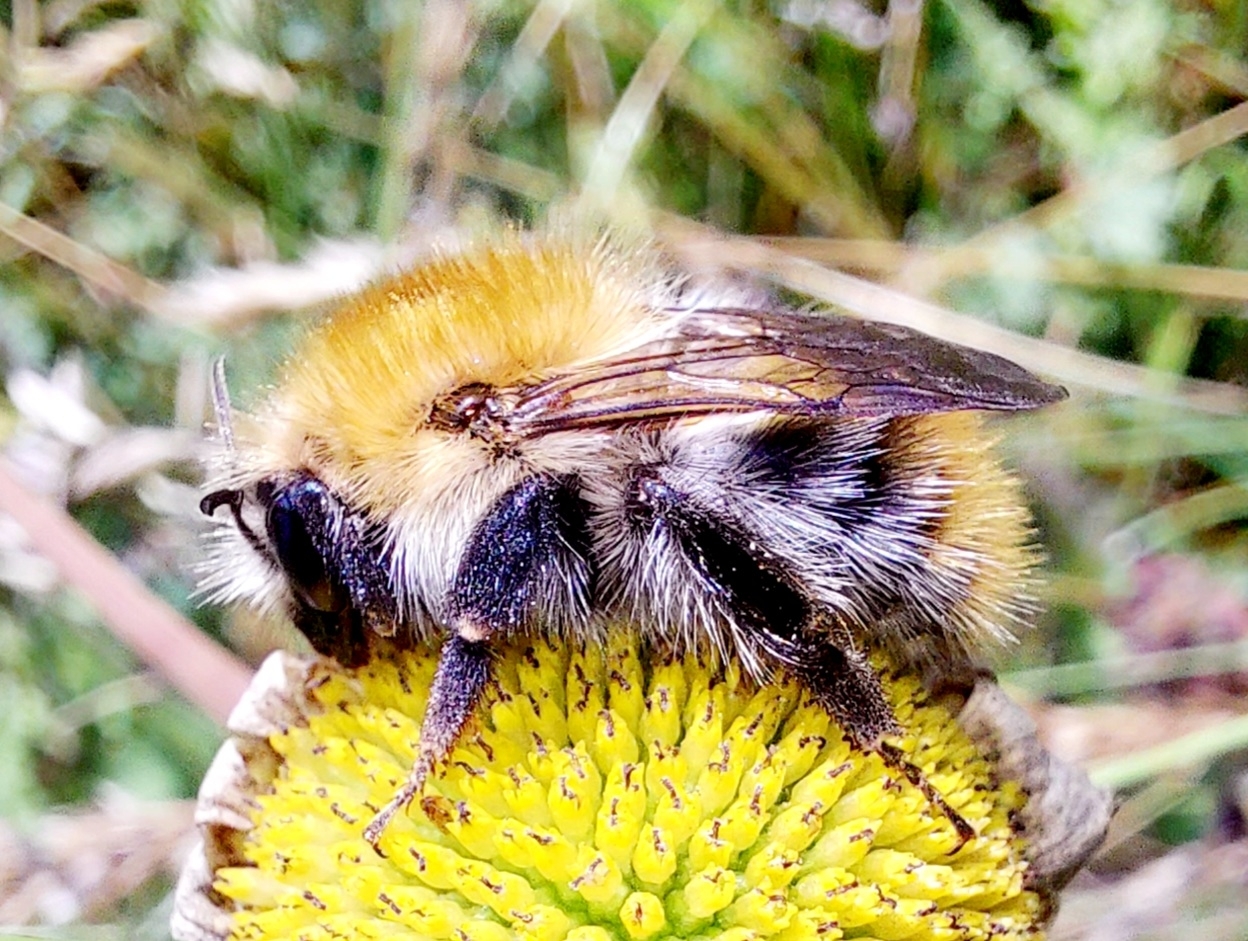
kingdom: Animalia
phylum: Arthropoda
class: Insecta
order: Hymenoptera
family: Apidae
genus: Bombus
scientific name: Bombus pascuorum
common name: Common carder bee
